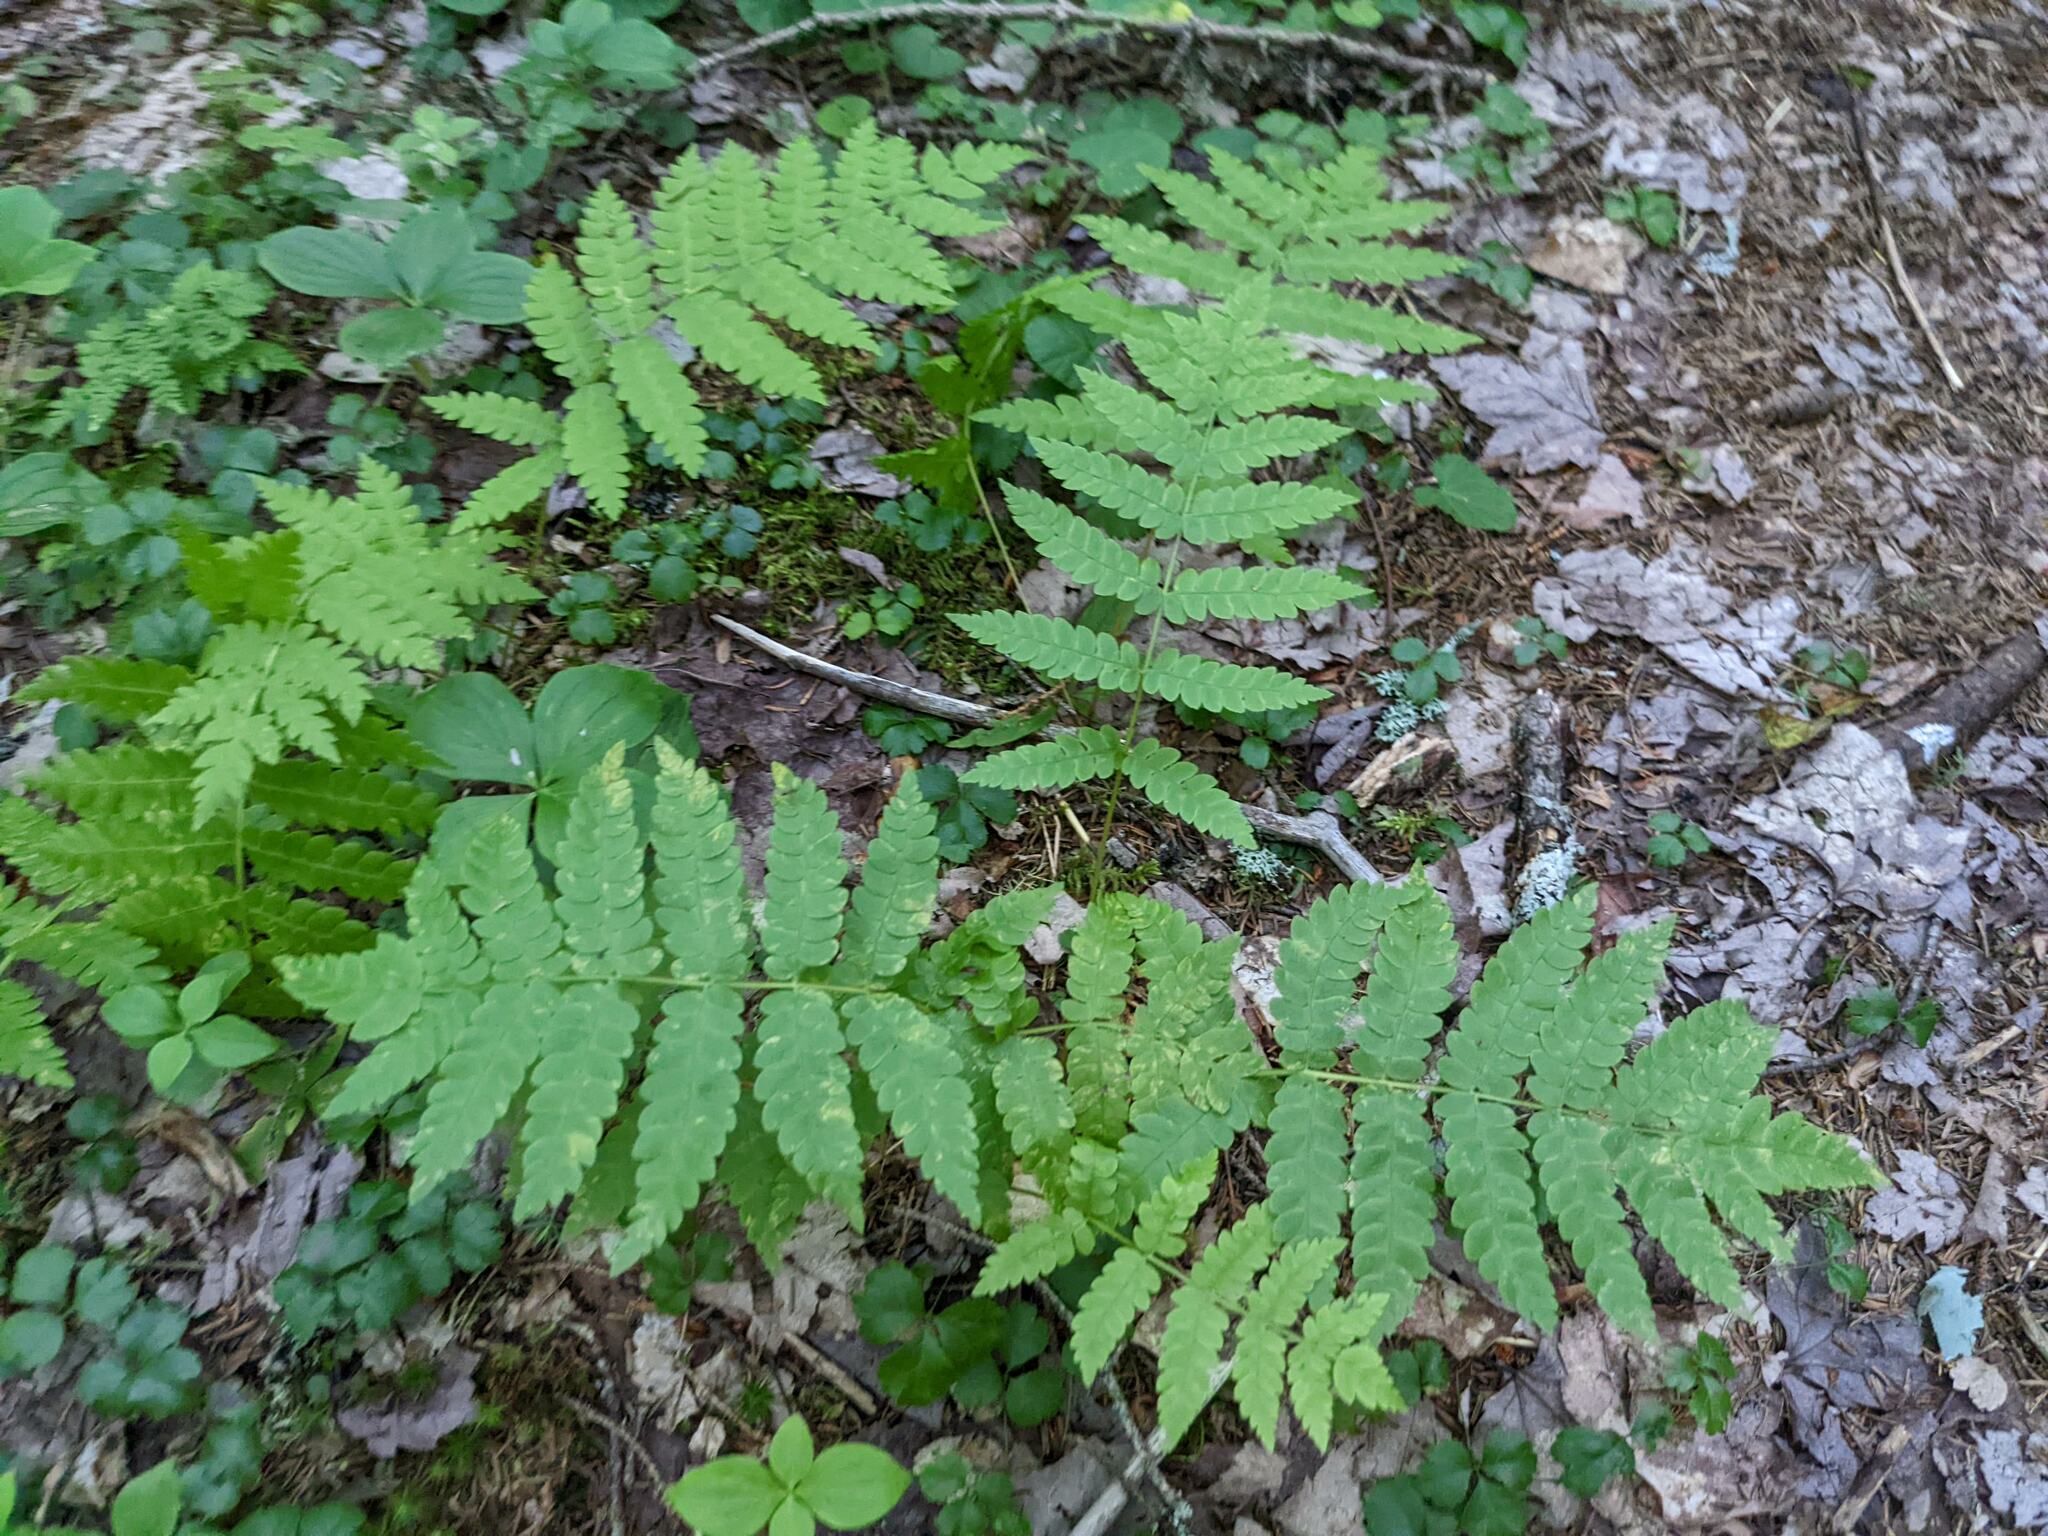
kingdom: Plantae
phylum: Tracheophyta
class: Polypodiopsida
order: Osmundales
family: Osmundaceae
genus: Osmundastrum
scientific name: Osmundastrum cinnamomeum
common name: Cinnamon fern
